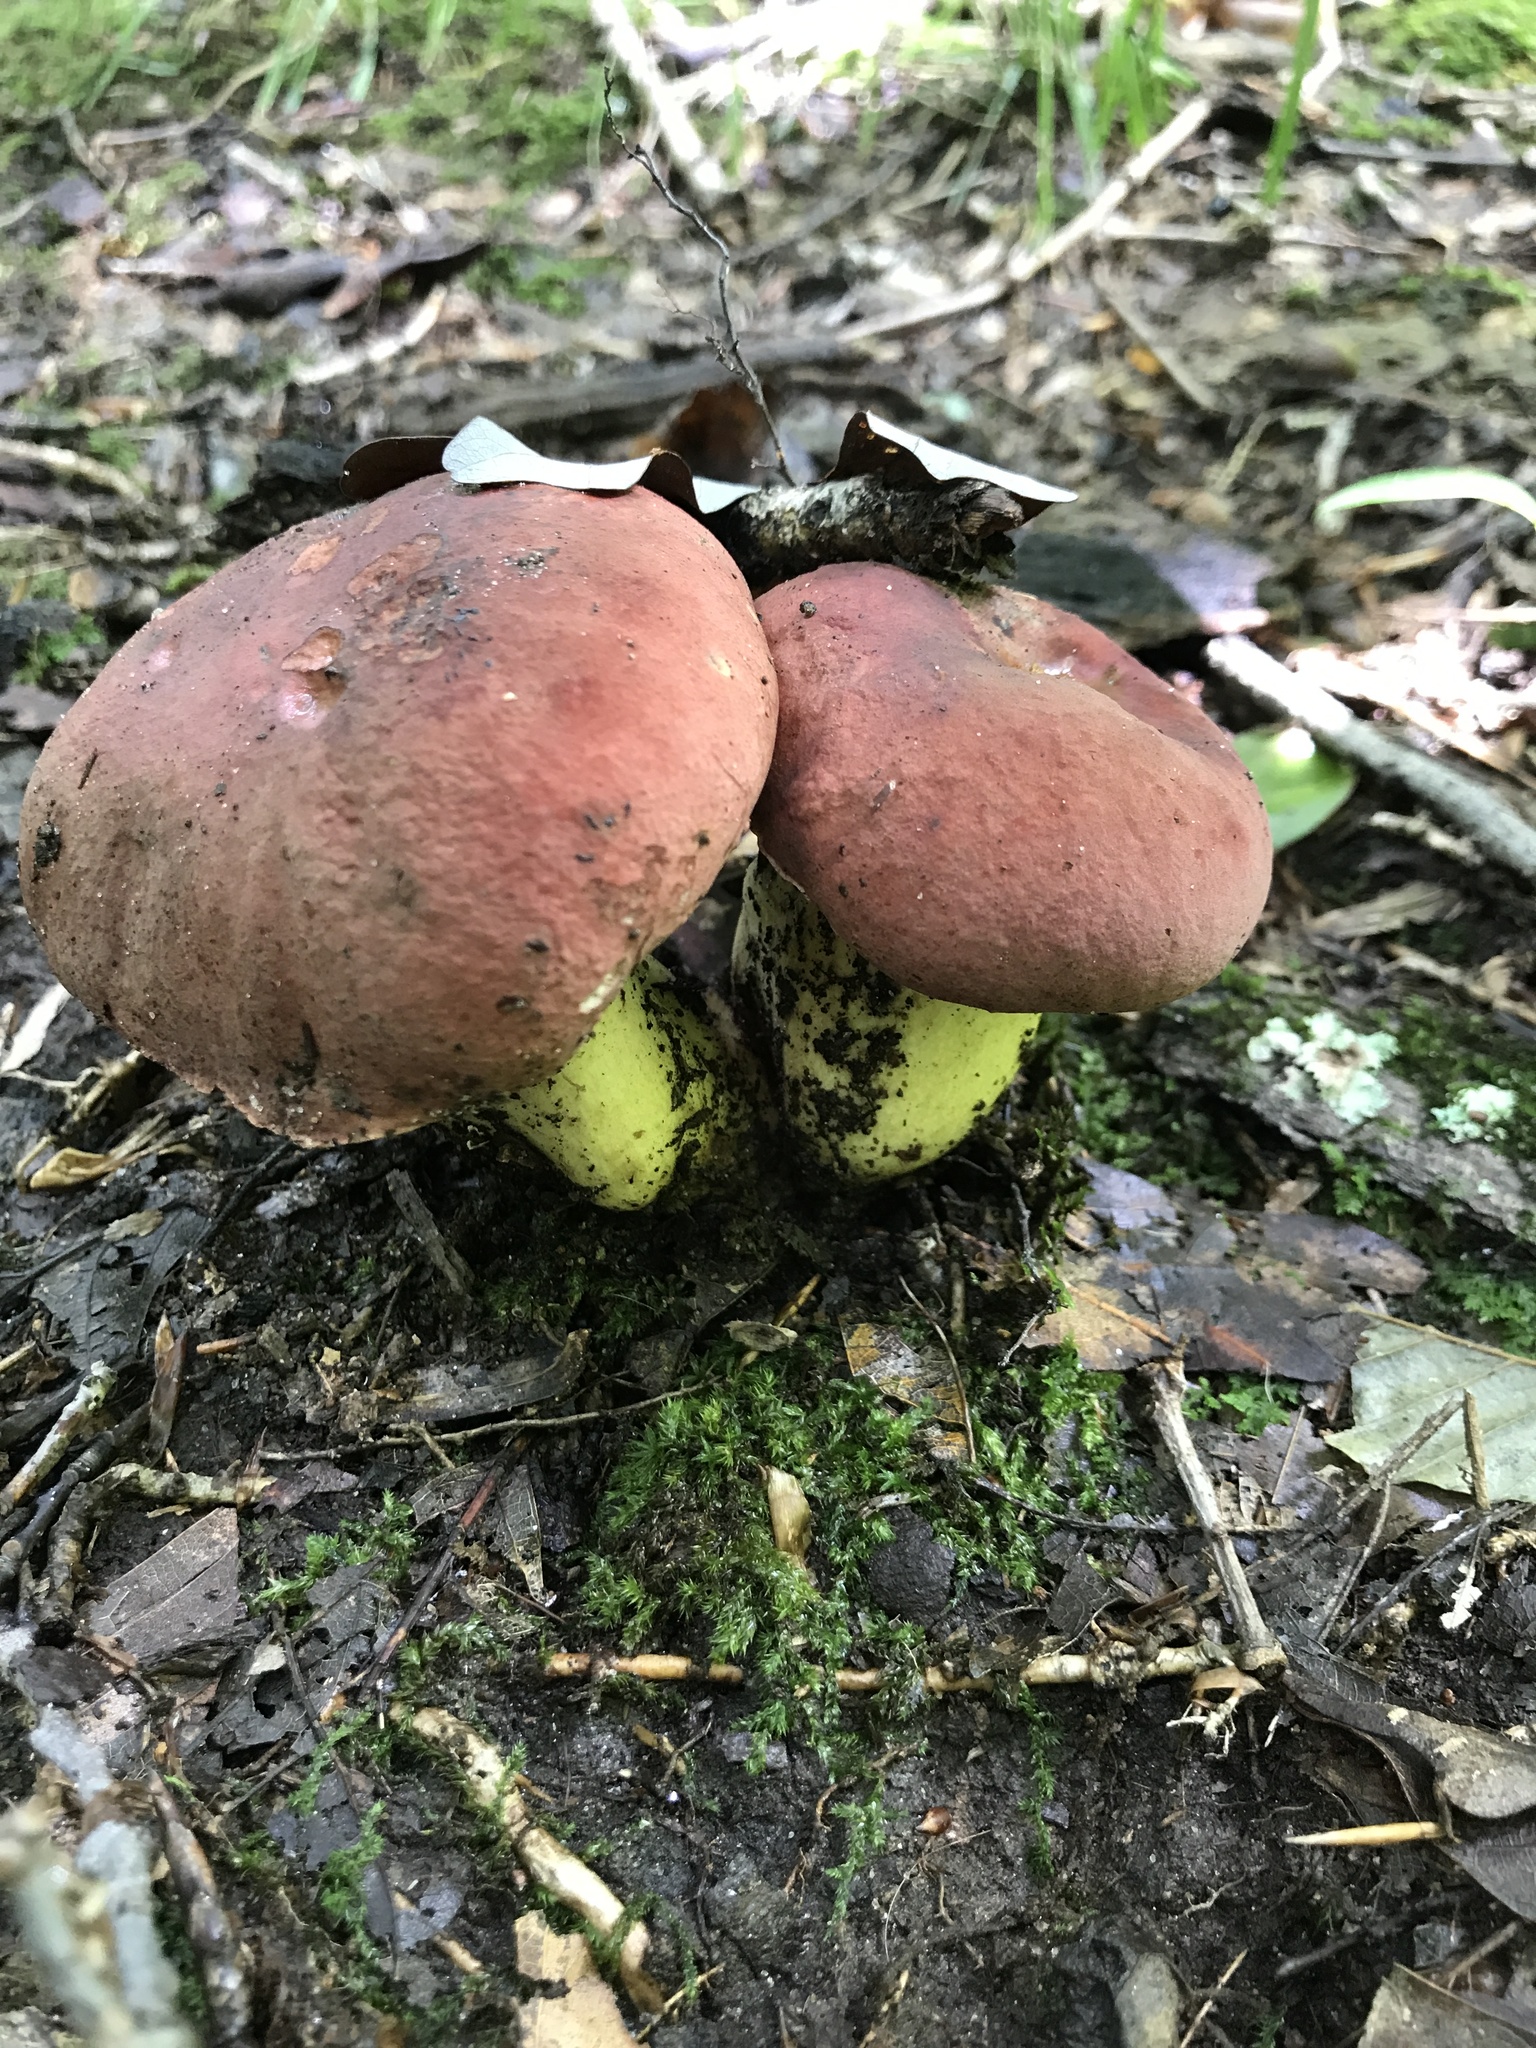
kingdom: Fungi
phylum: Basidiomycota
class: Agaricomycetes
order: Boletales
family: Boletaceae
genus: Boletus
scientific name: Boletus subluridellus
